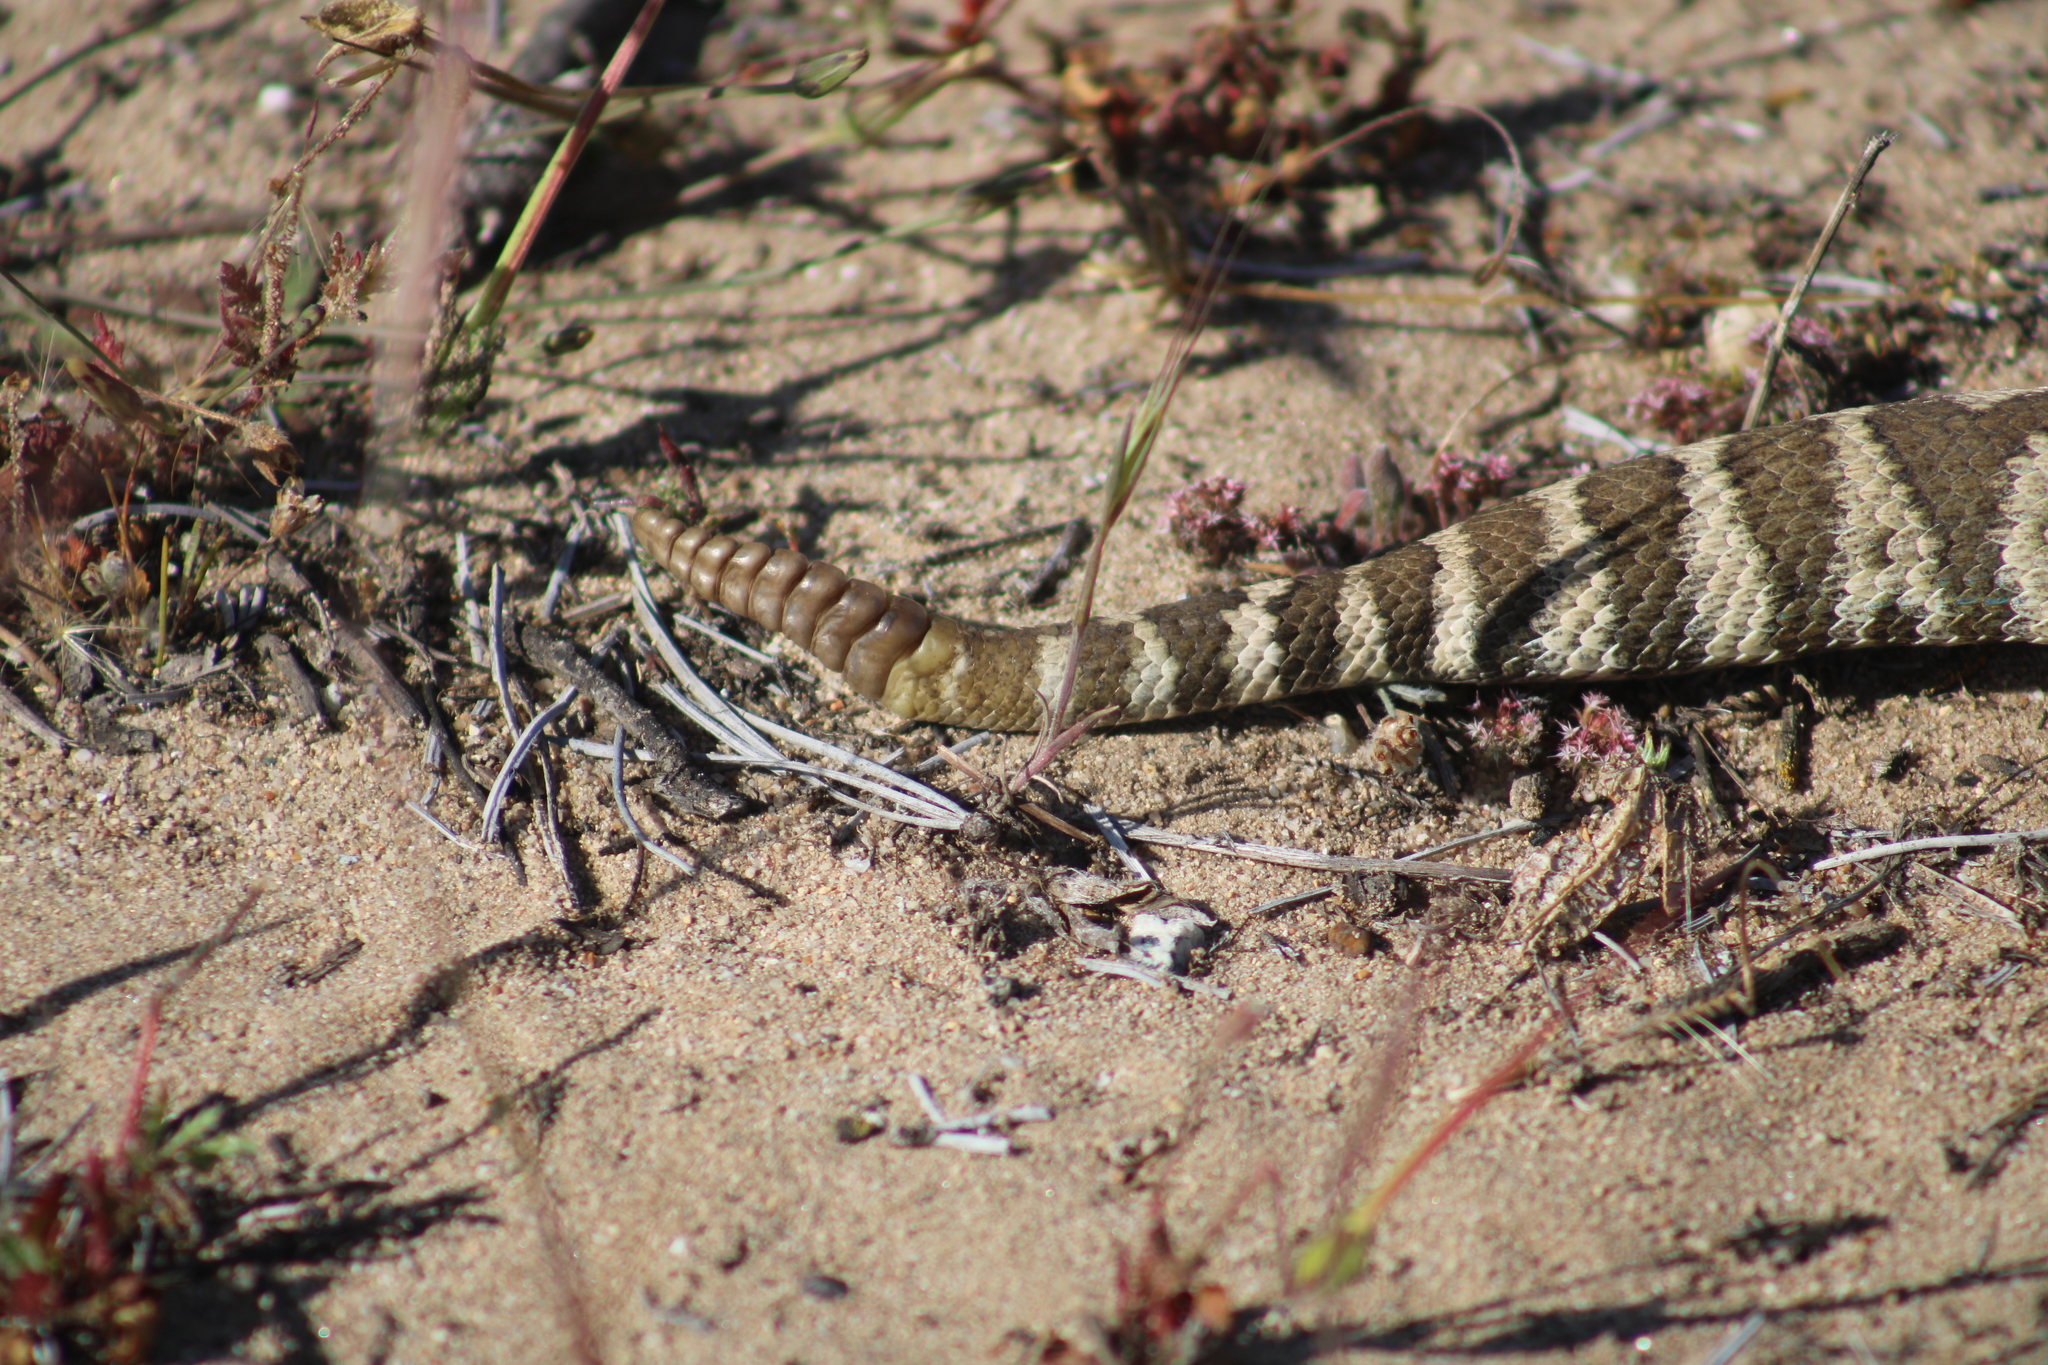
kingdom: Animalia
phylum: Chordata
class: Squamata
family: Viperidae
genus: Crotalus
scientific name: Crotalus oreganus
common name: Abyssus
